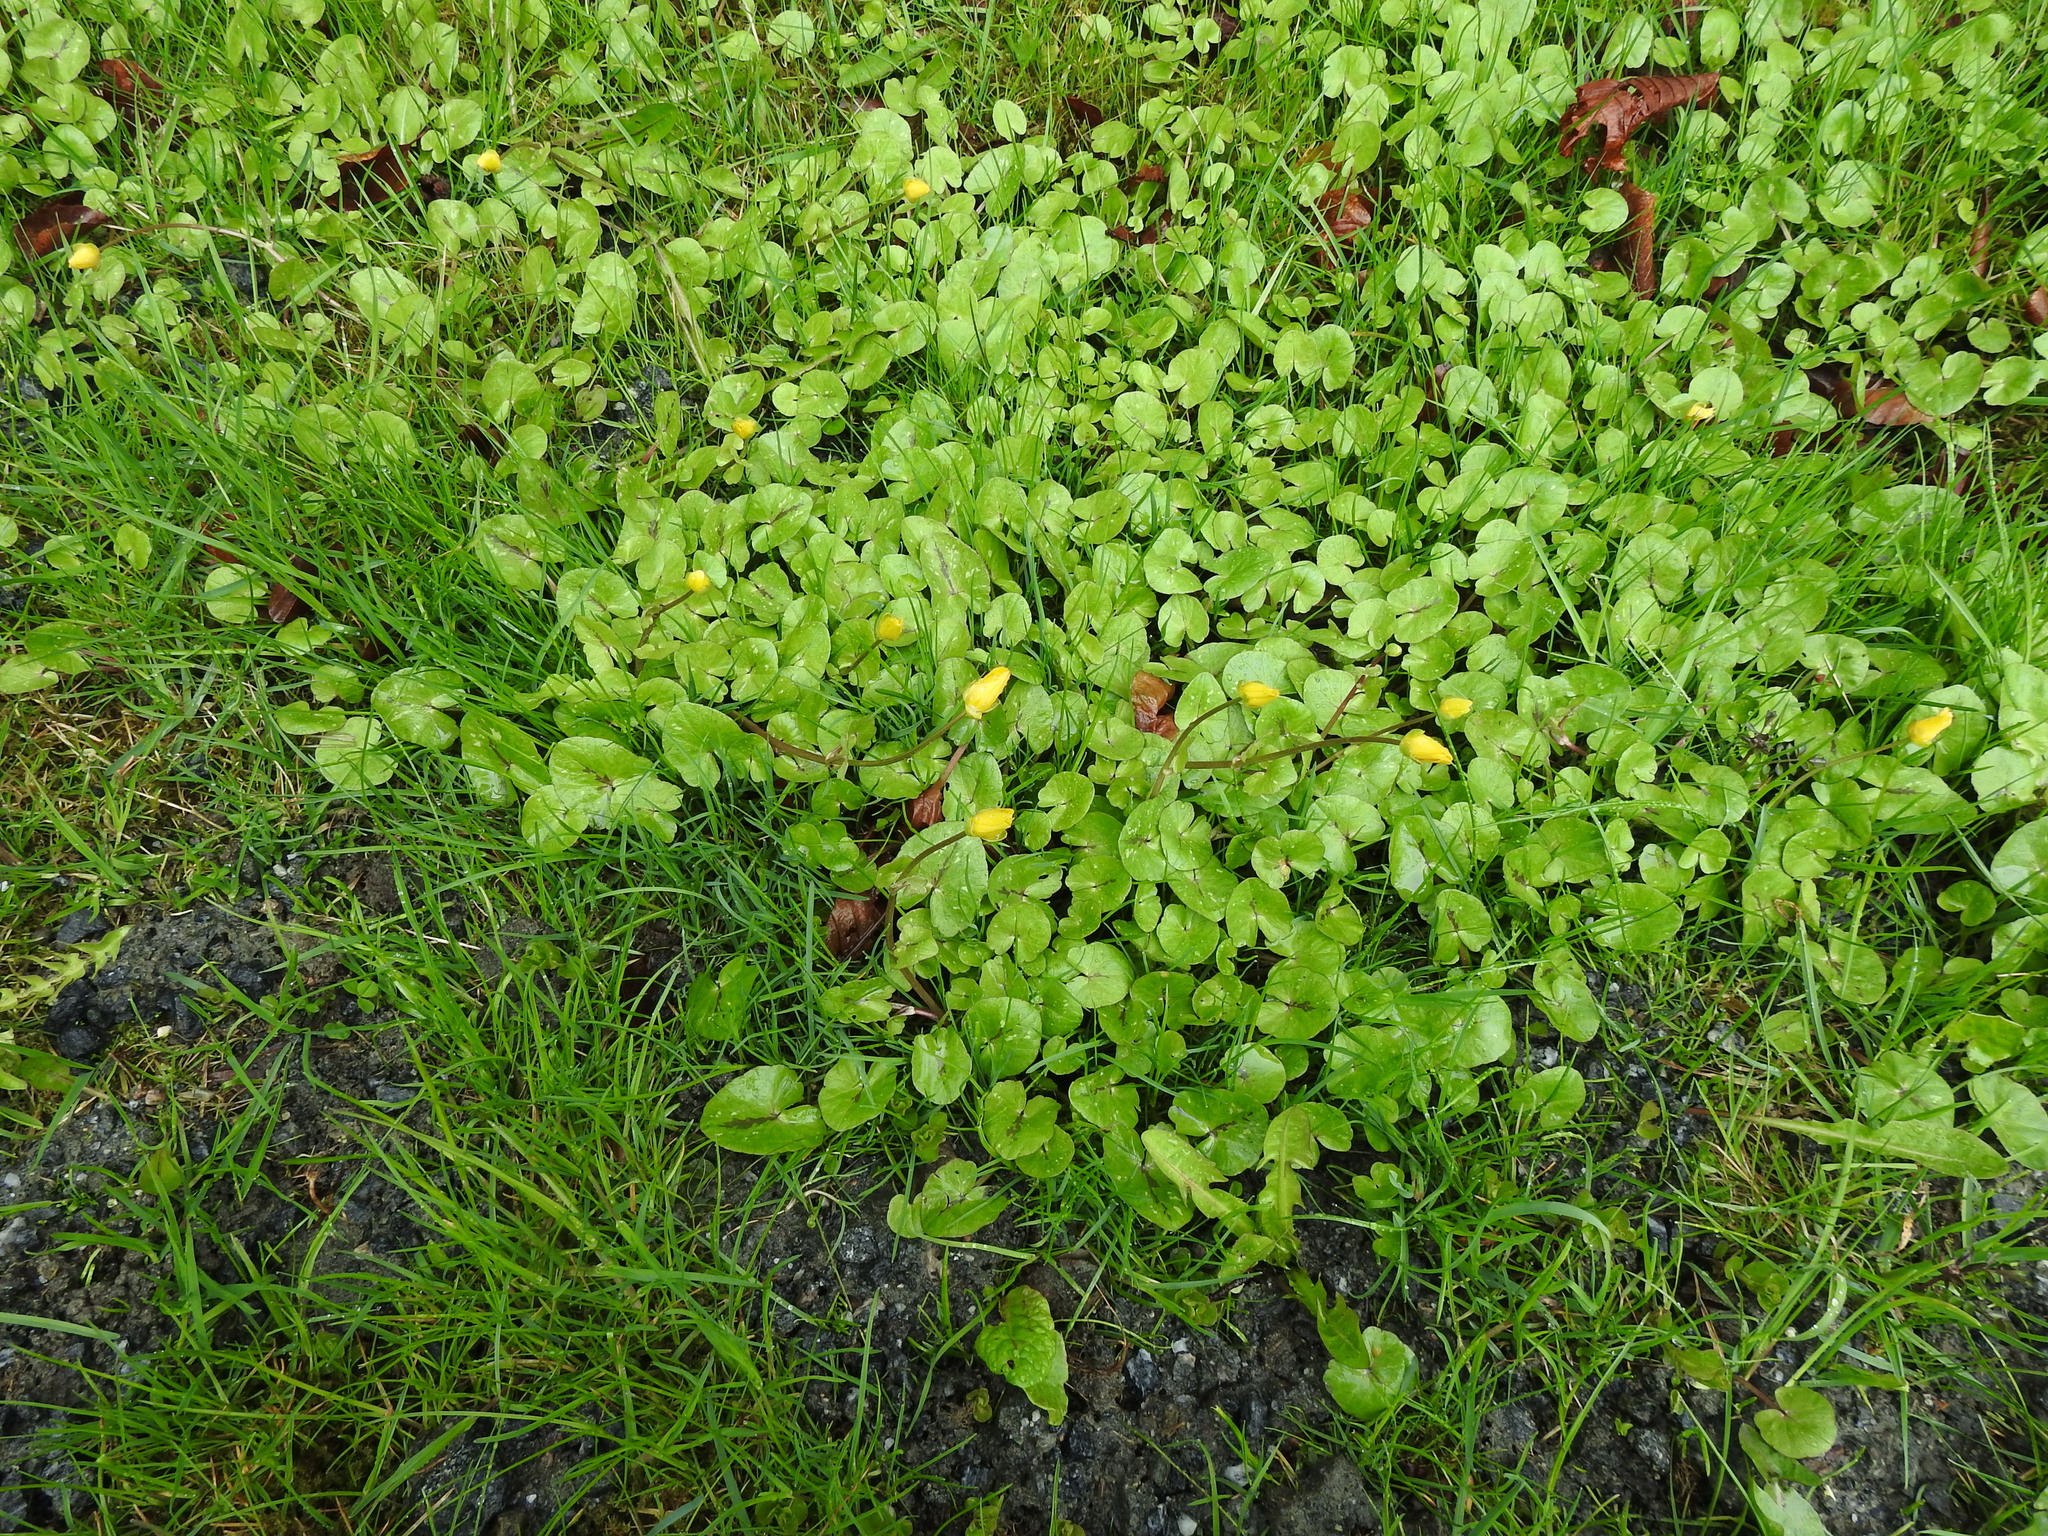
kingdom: Plantae
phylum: Tracheophyta
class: Magnoliopsida
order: Ranunculales
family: Ranunculaceae
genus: Ficaria
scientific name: Ficaria verna
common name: Lesser celandine
